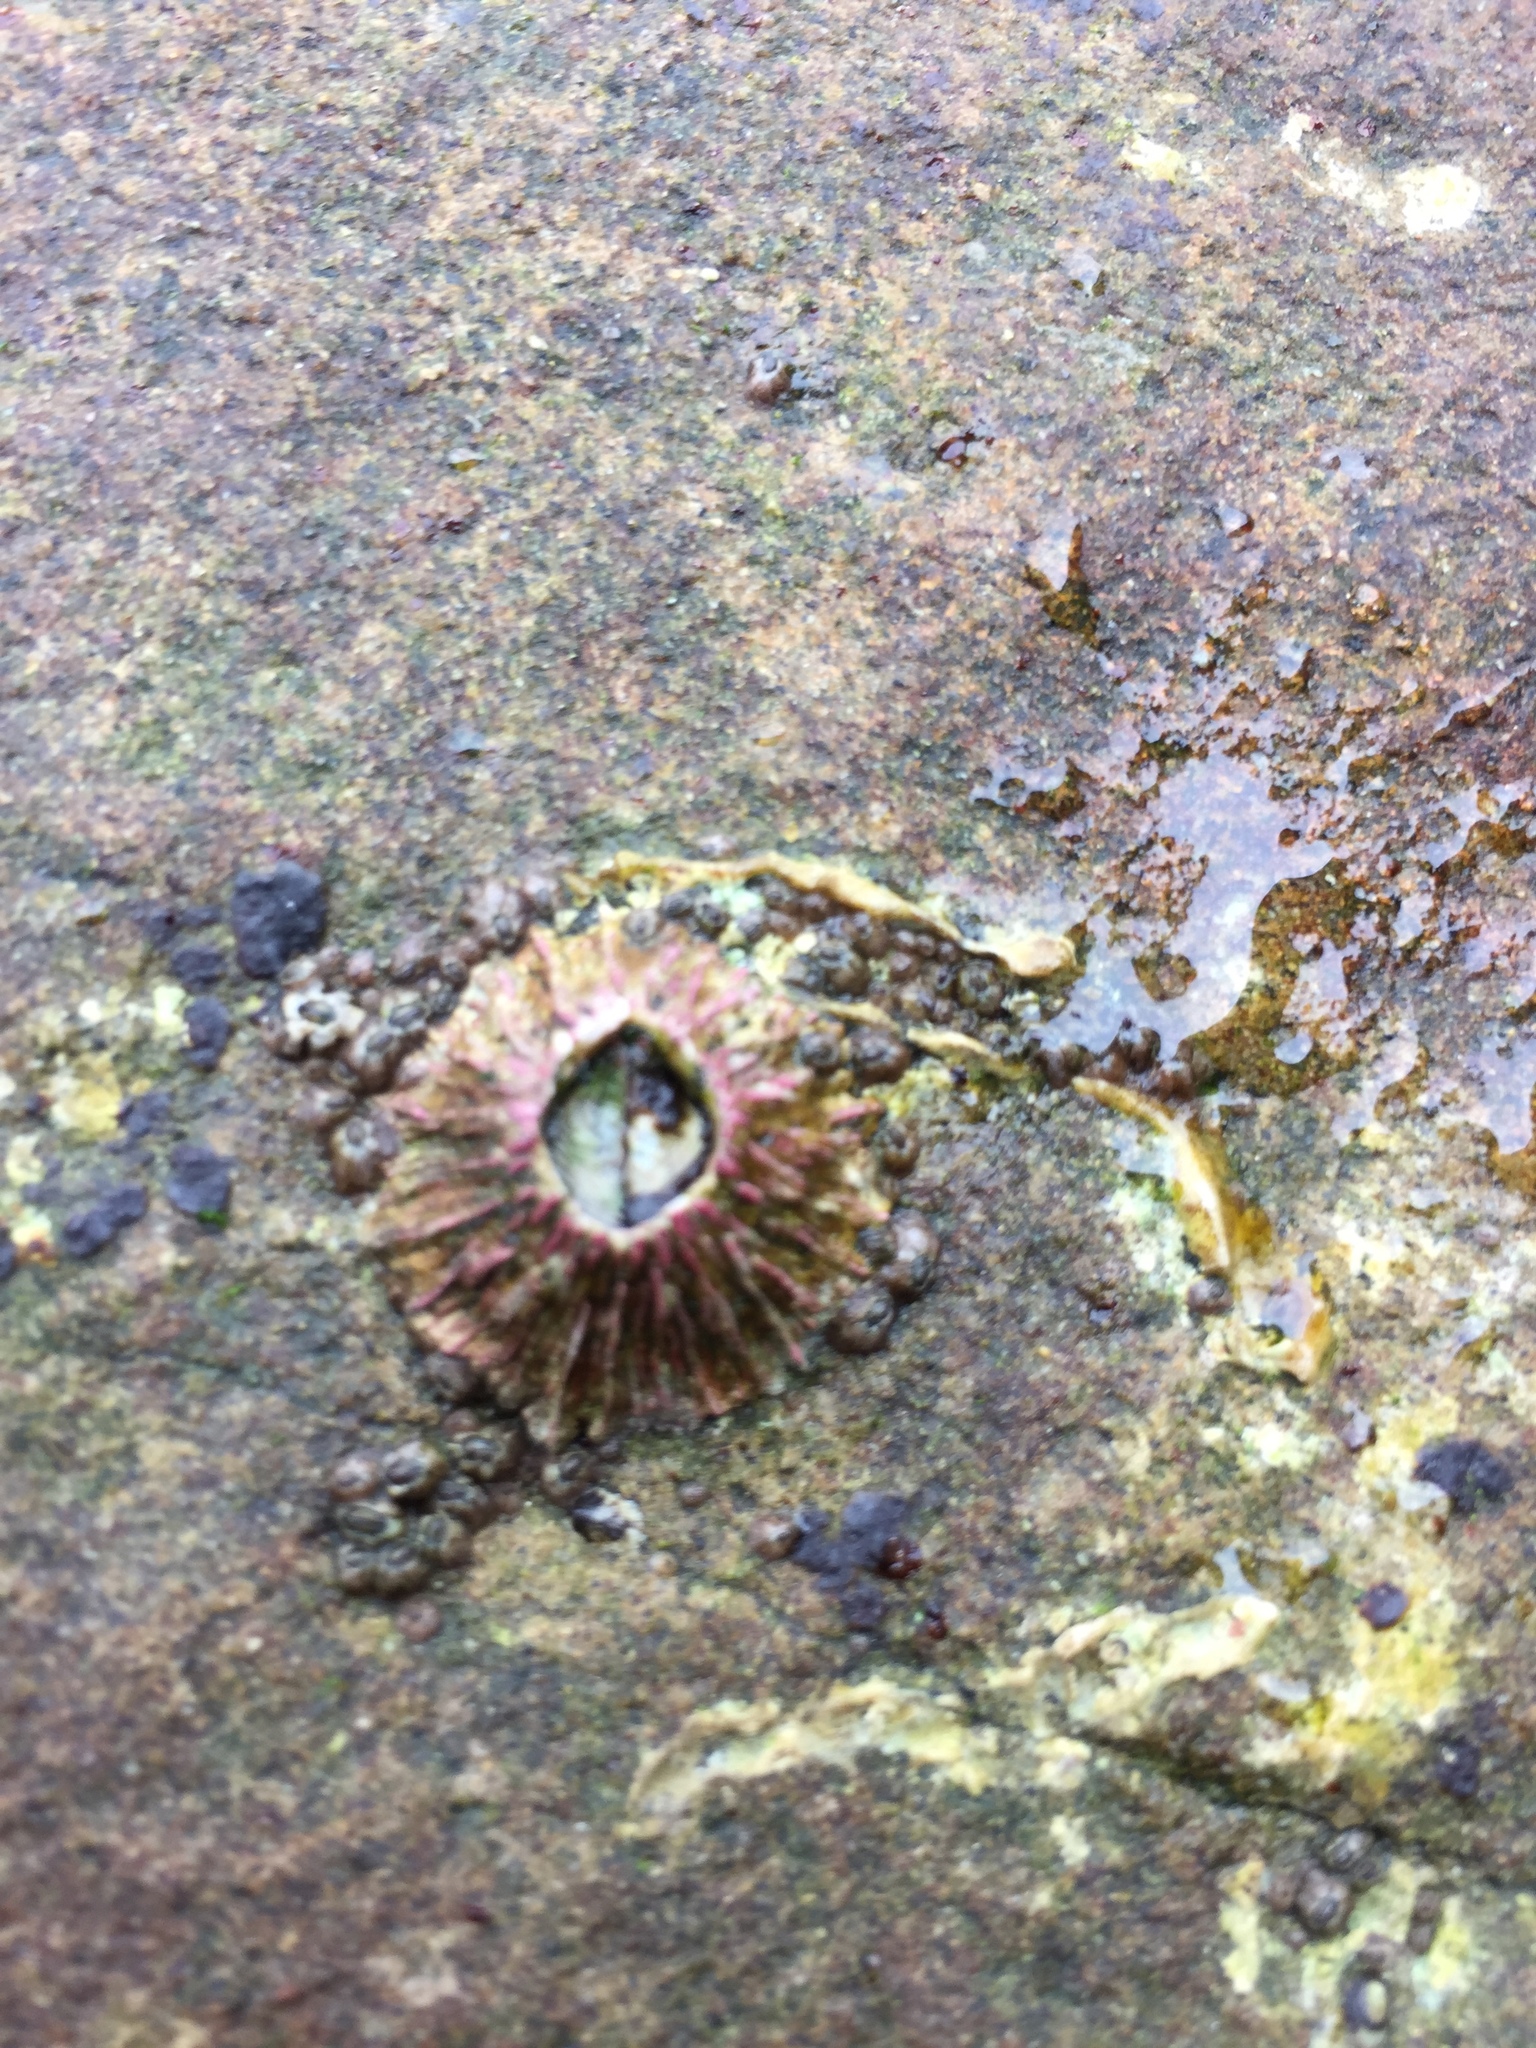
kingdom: Animalia
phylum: Arthropoda
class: Maxillopoda
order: Sessilia
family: Tetraclitidae
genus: Tetraclita
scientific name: Tetraclita rubescens
